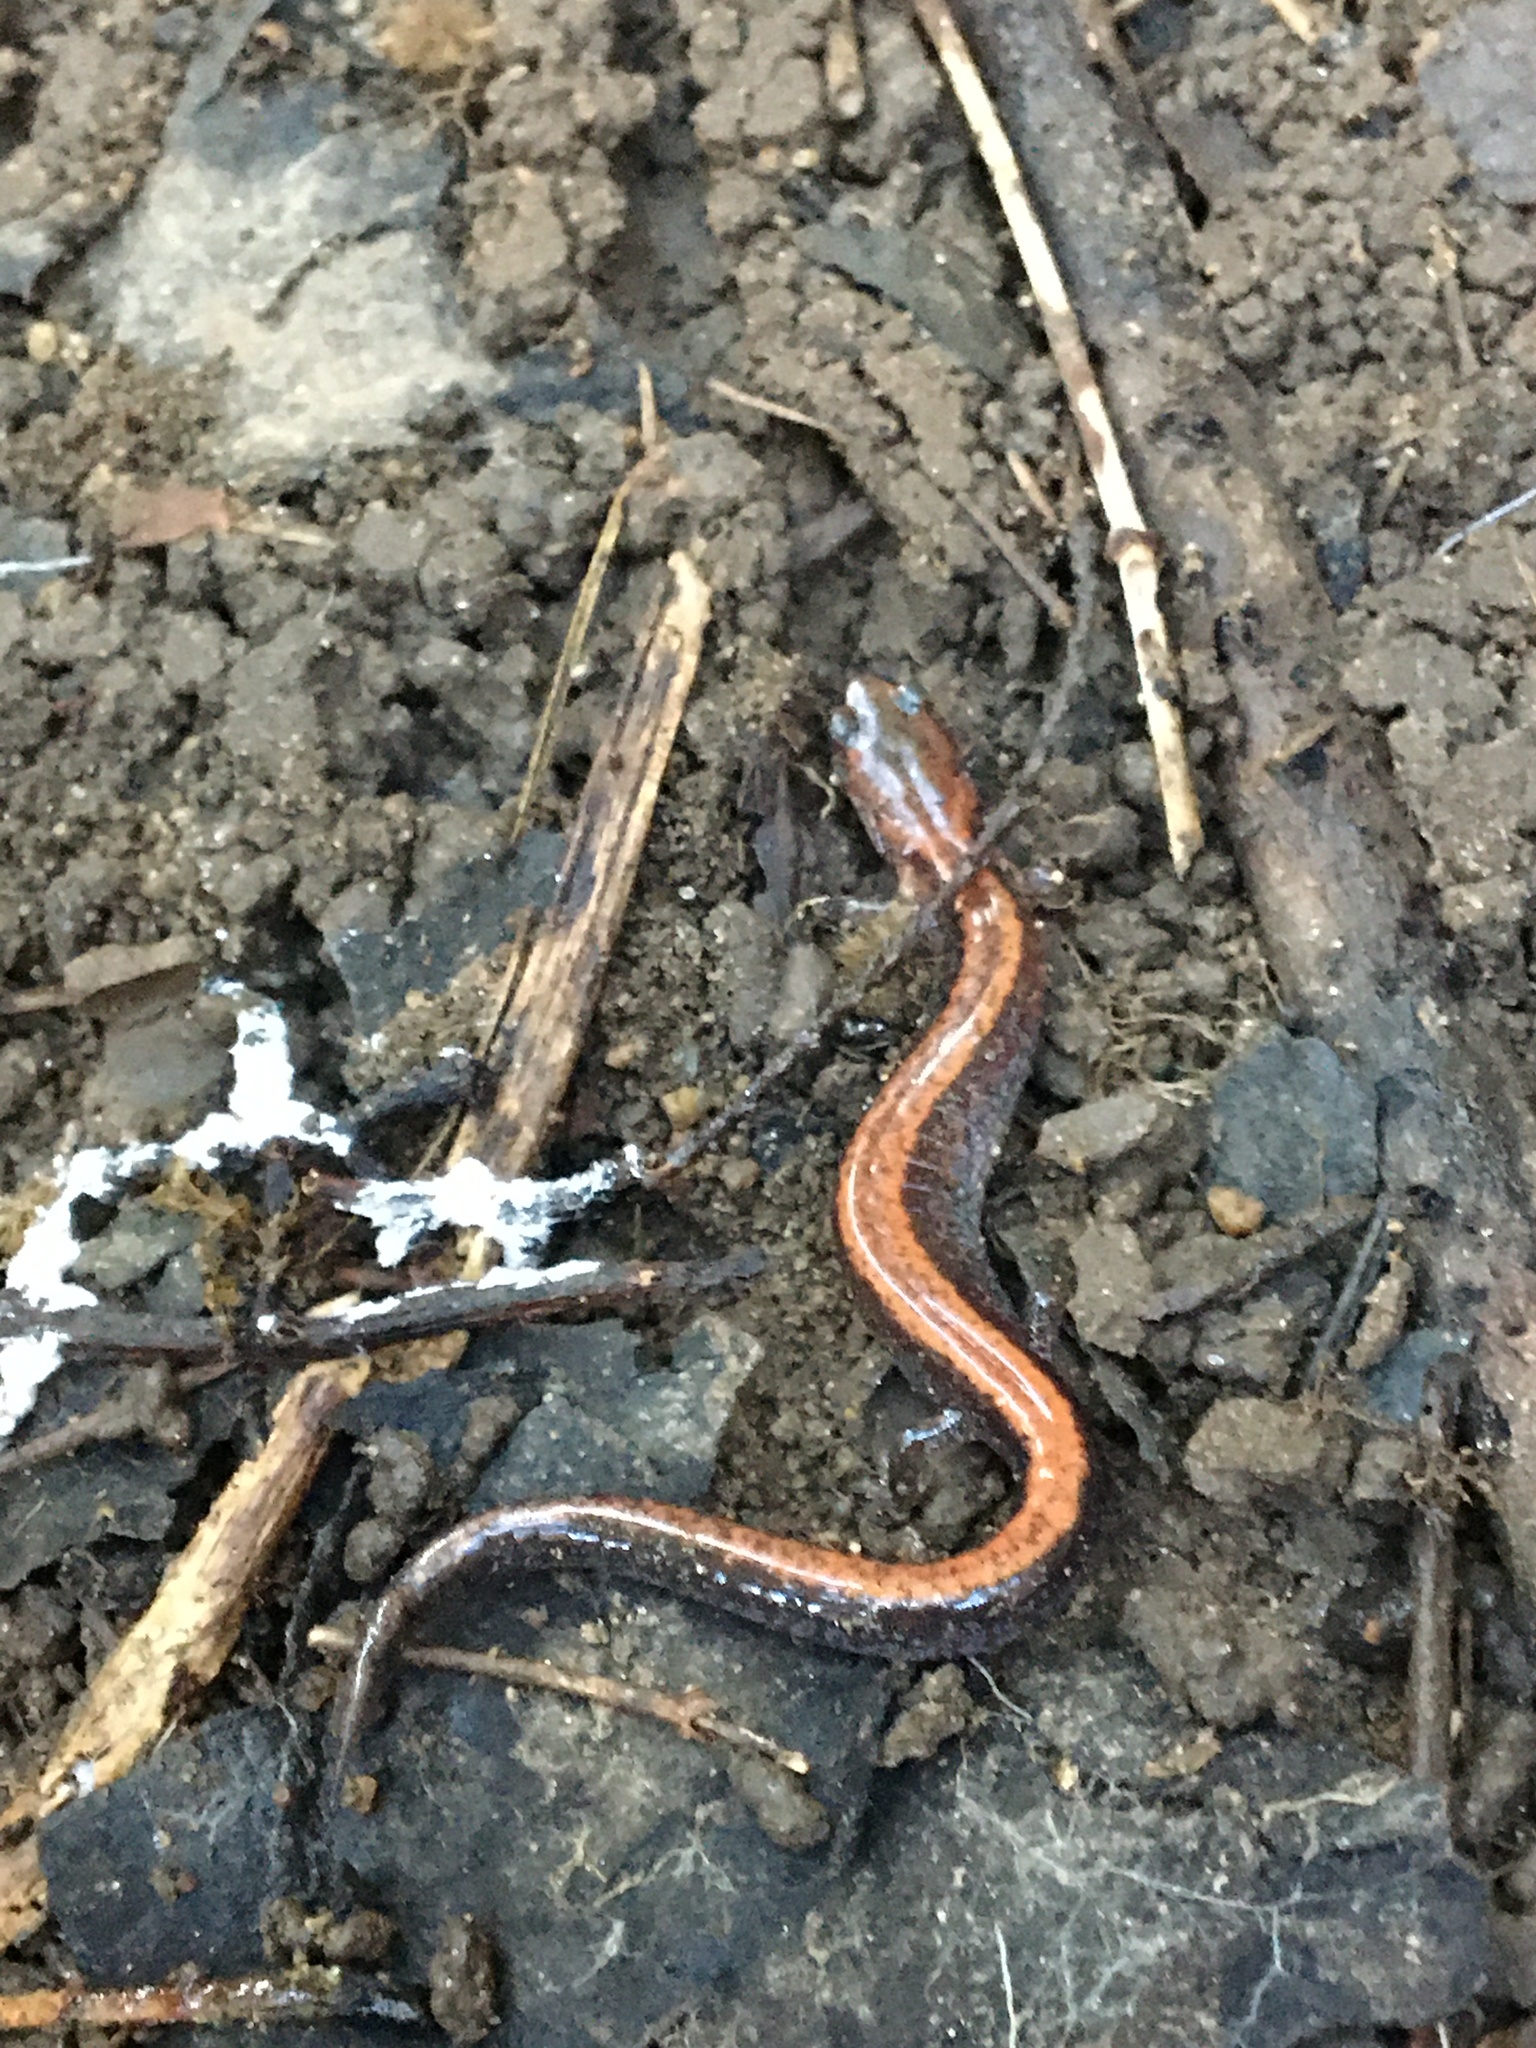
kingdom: Animalia
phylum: Chordata
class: Amphibia
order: Caudata
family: Plethodontidae
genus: Plethodon
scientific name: Plethodon cinereus
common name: Redback salamander
